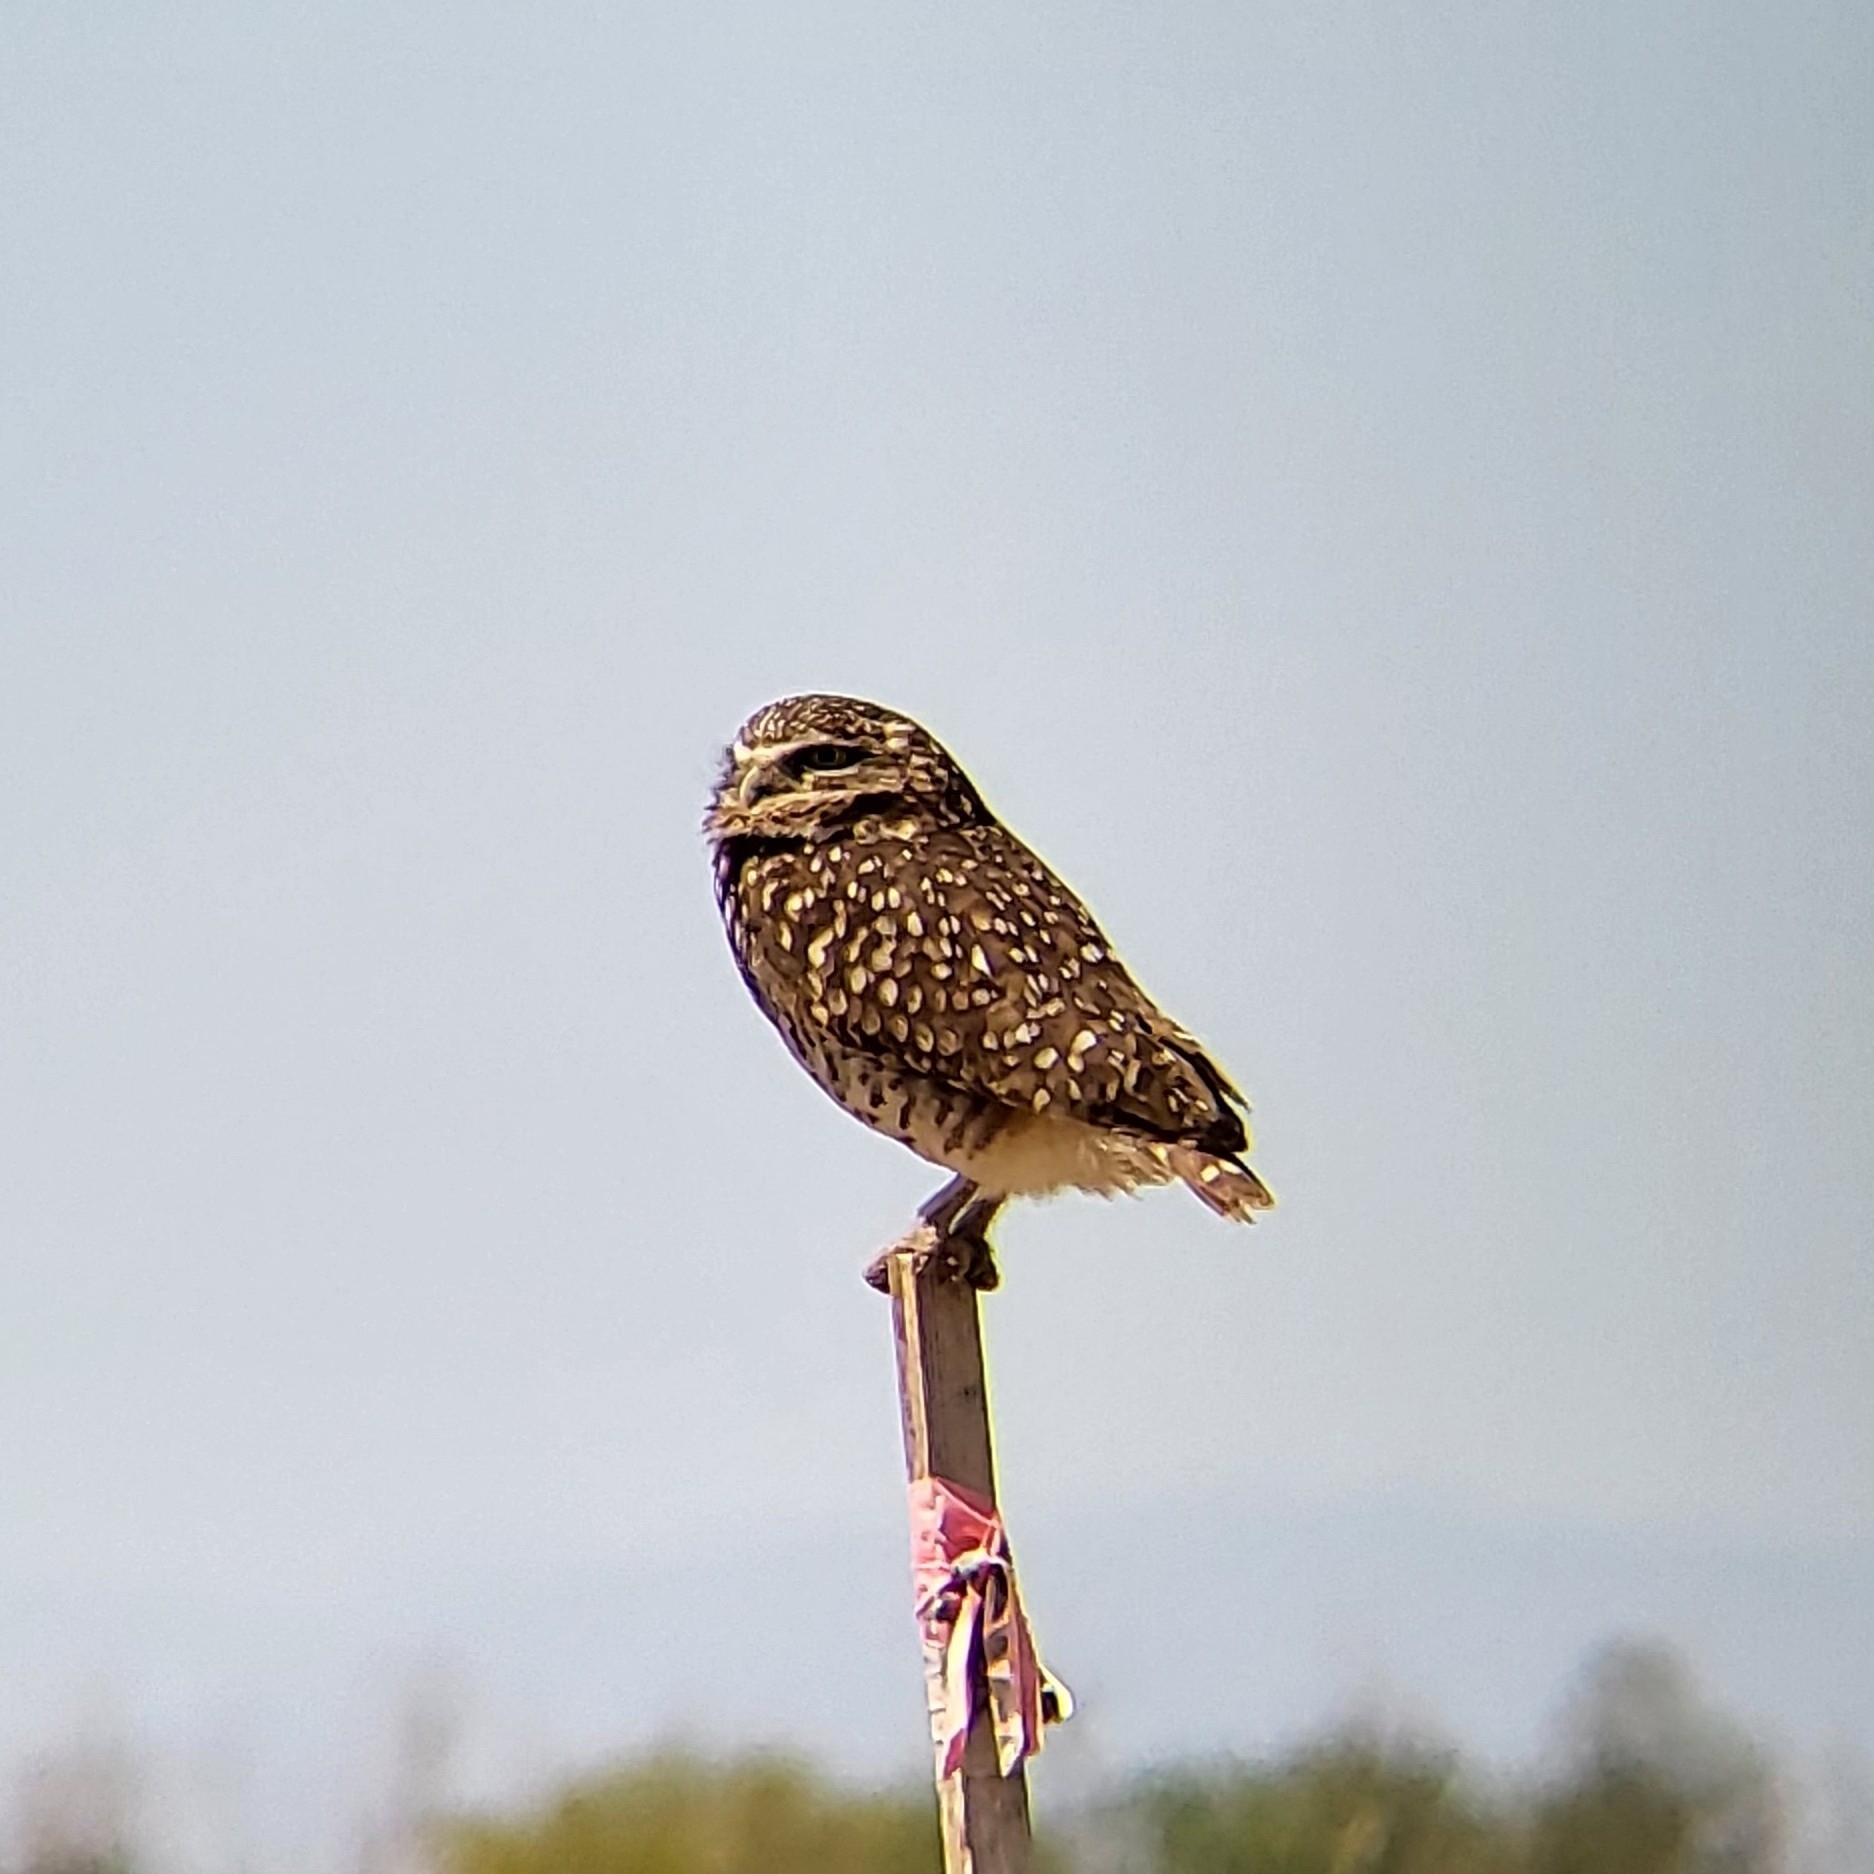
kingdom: Animalia
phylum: Chordata
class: Aves
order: Strigiformes
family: Strigidae
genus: Athene
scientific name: Athene cunicularia
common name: Burrowing owl
